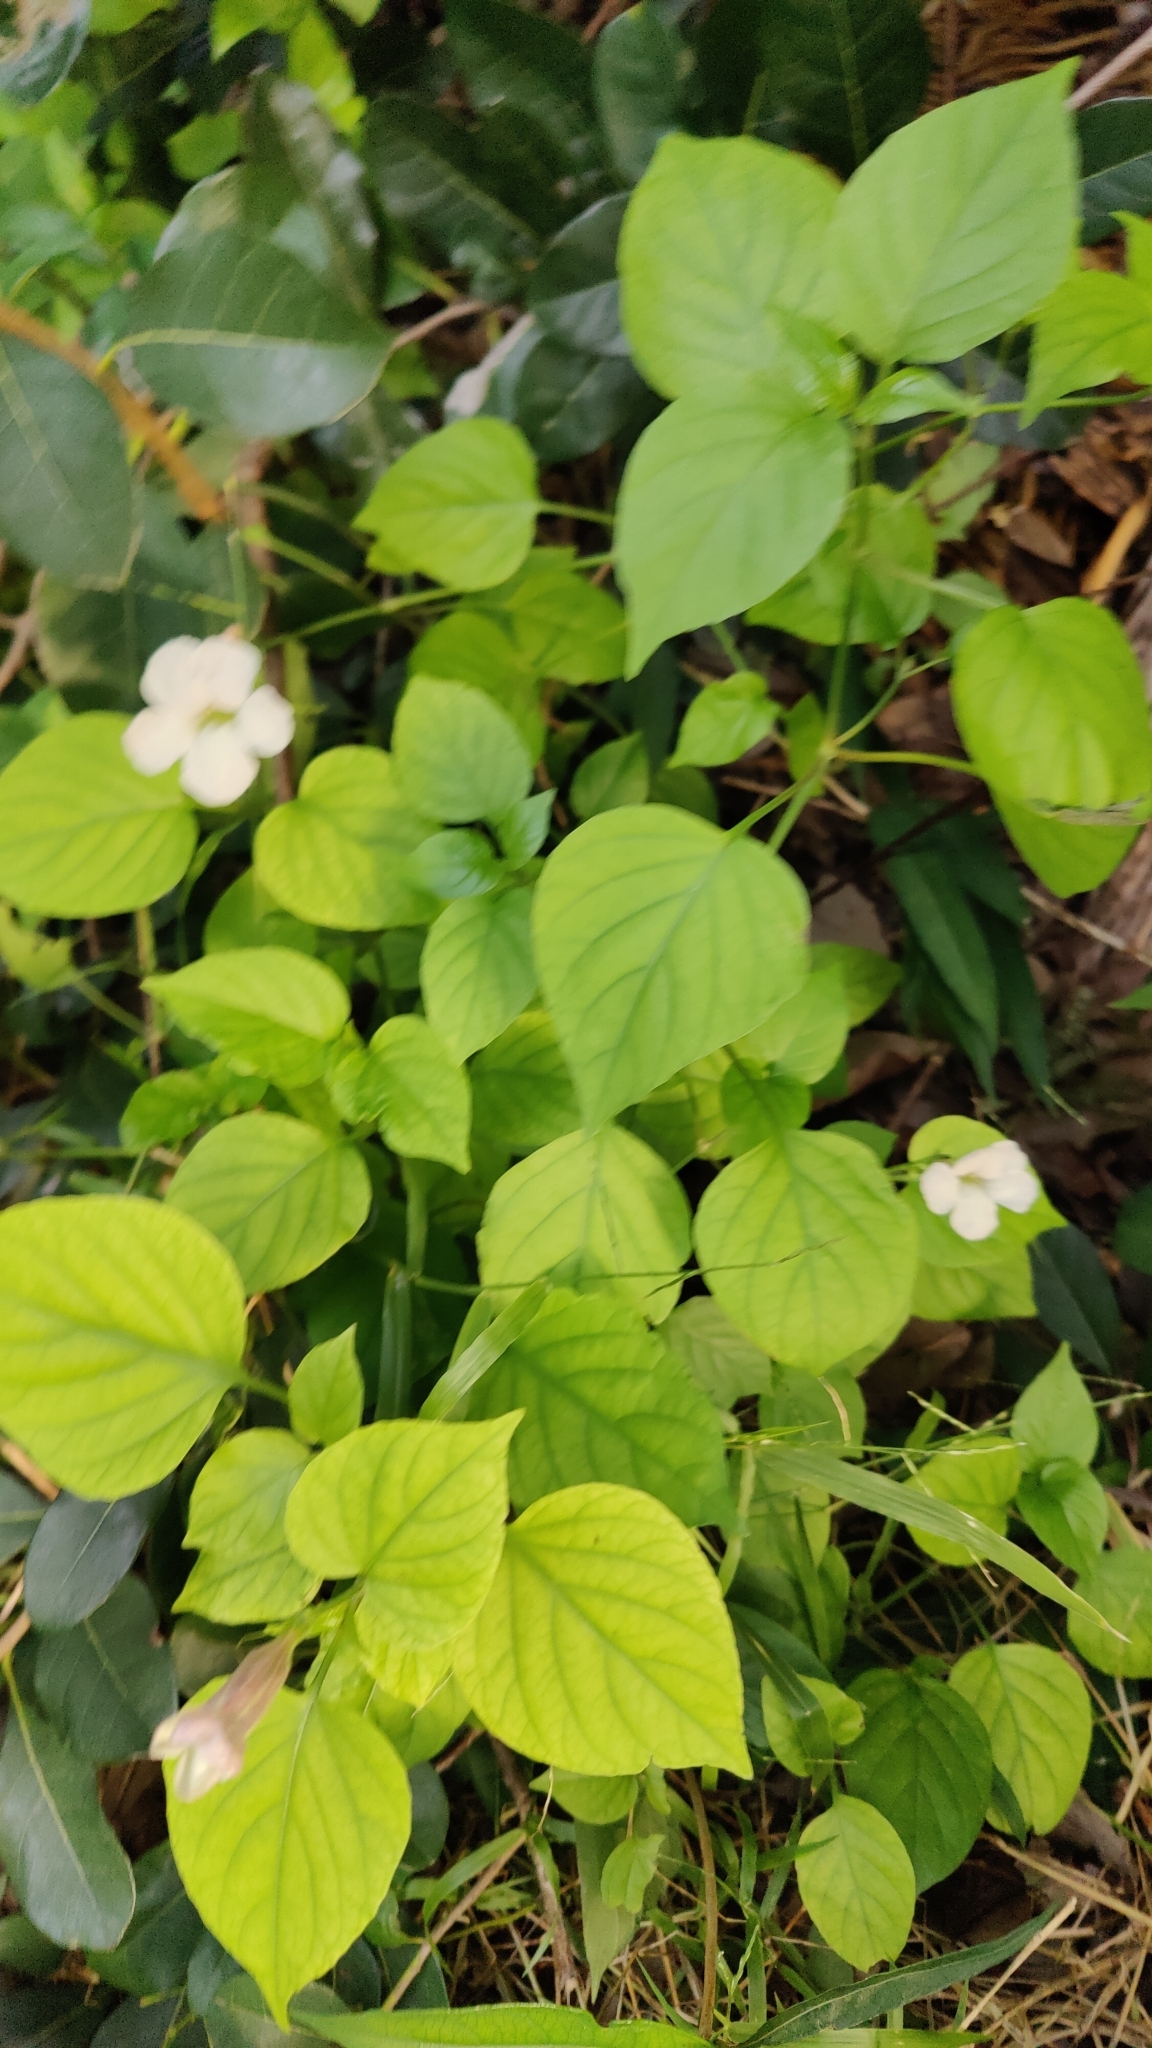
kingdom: Plantae
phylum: Tracheophyta
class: Magnoliopsida
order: Lamiales
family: Acanthaceae
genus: Asystasia
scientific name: Asystasia gangetica
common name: Chinese violet
